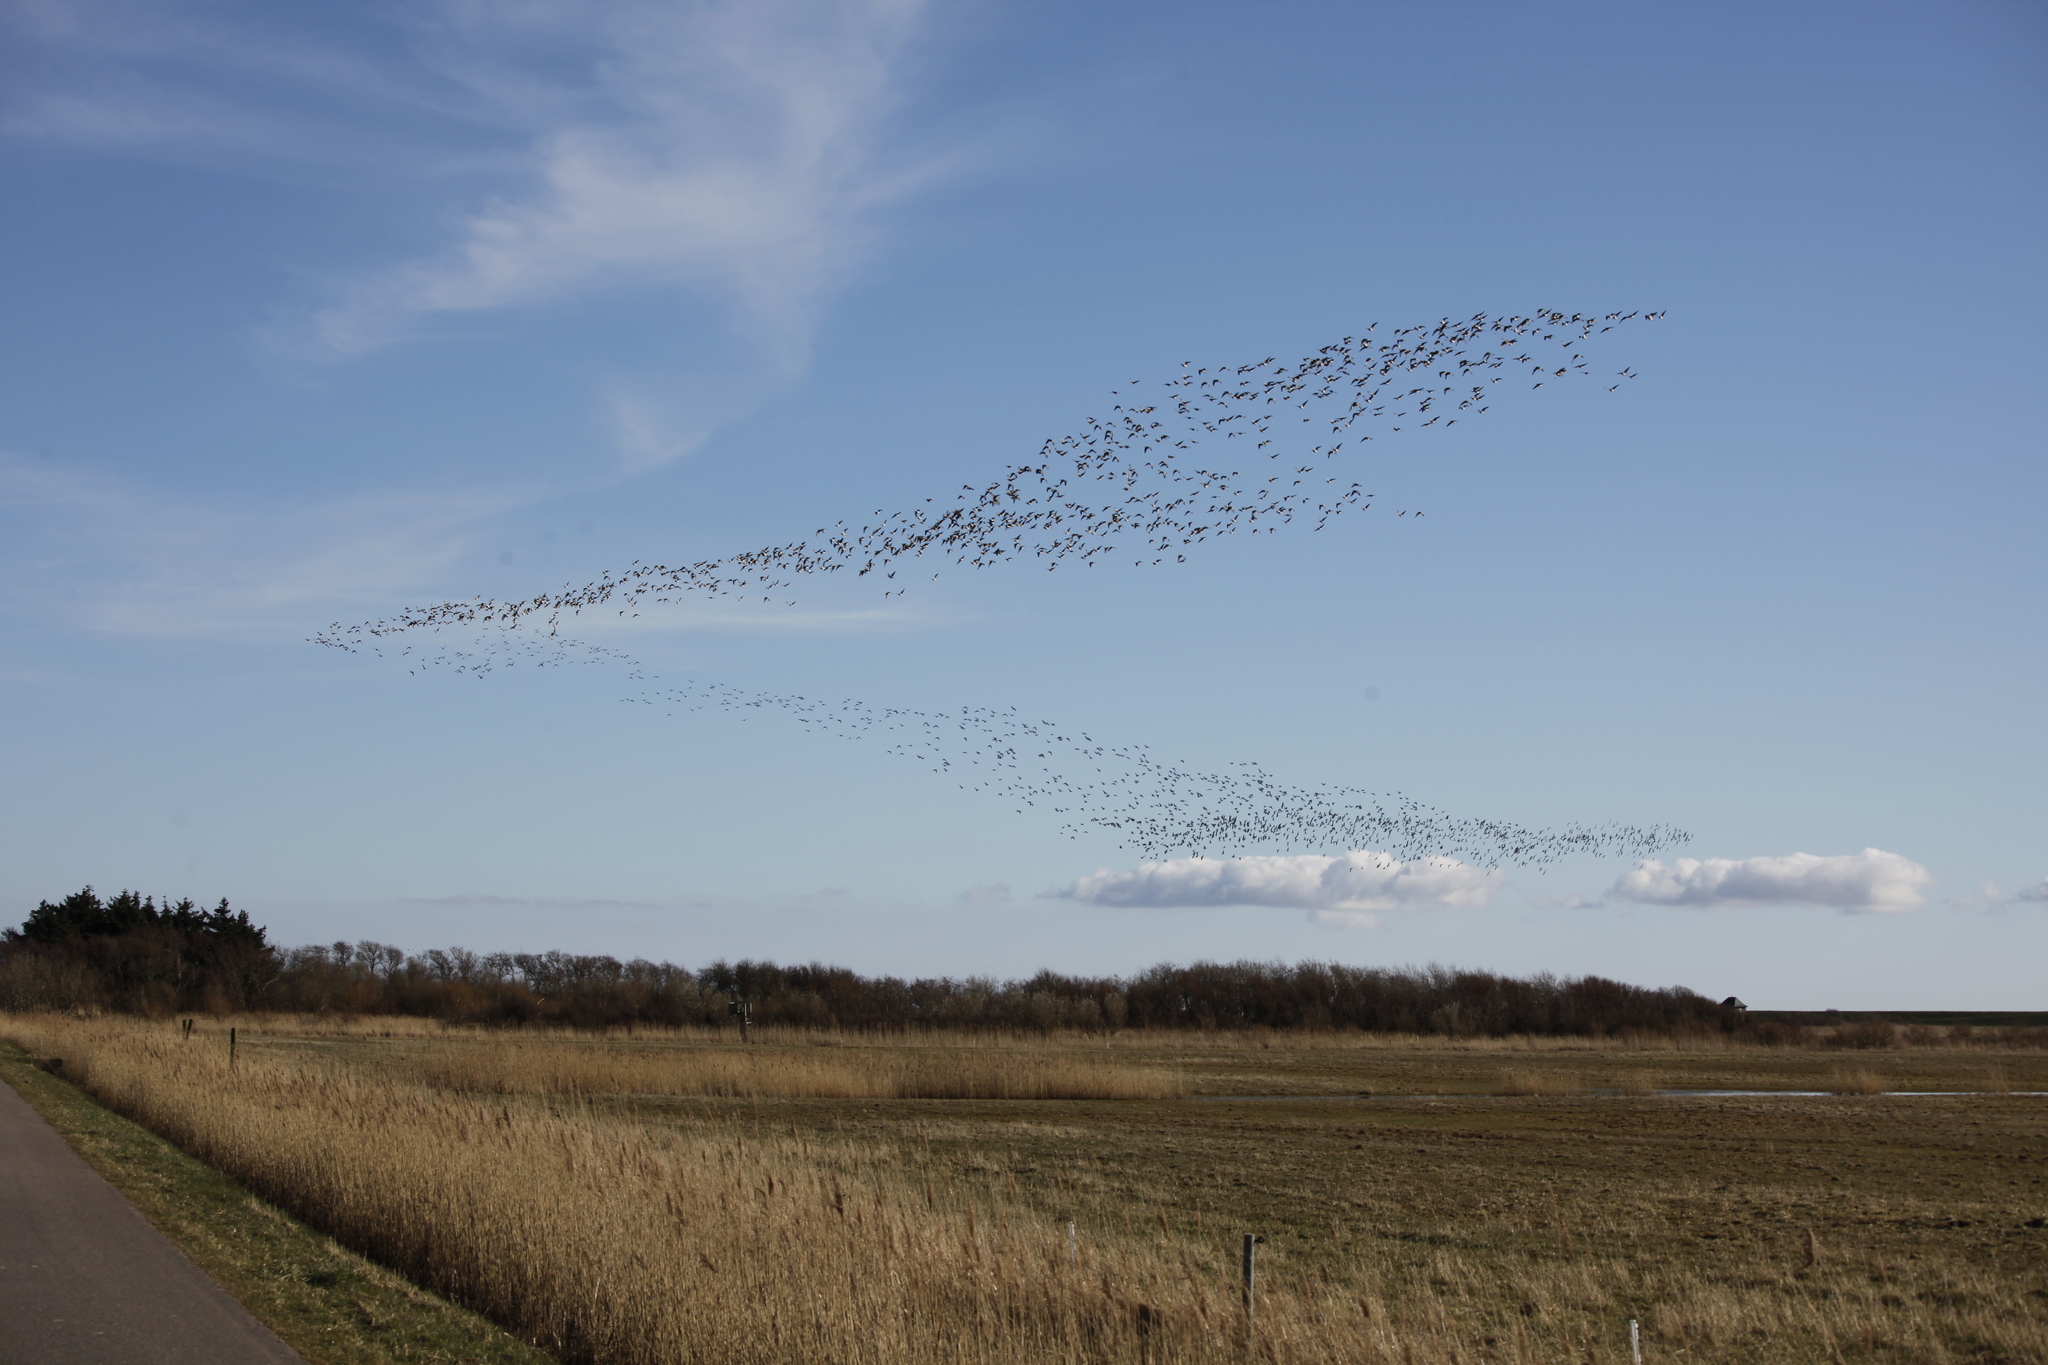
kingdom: Animalia
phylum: Chordata
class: Aves
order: Anseriformes
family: Anatidae
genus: Branta
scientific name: Branta leucopsis
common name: Barnacle goose
